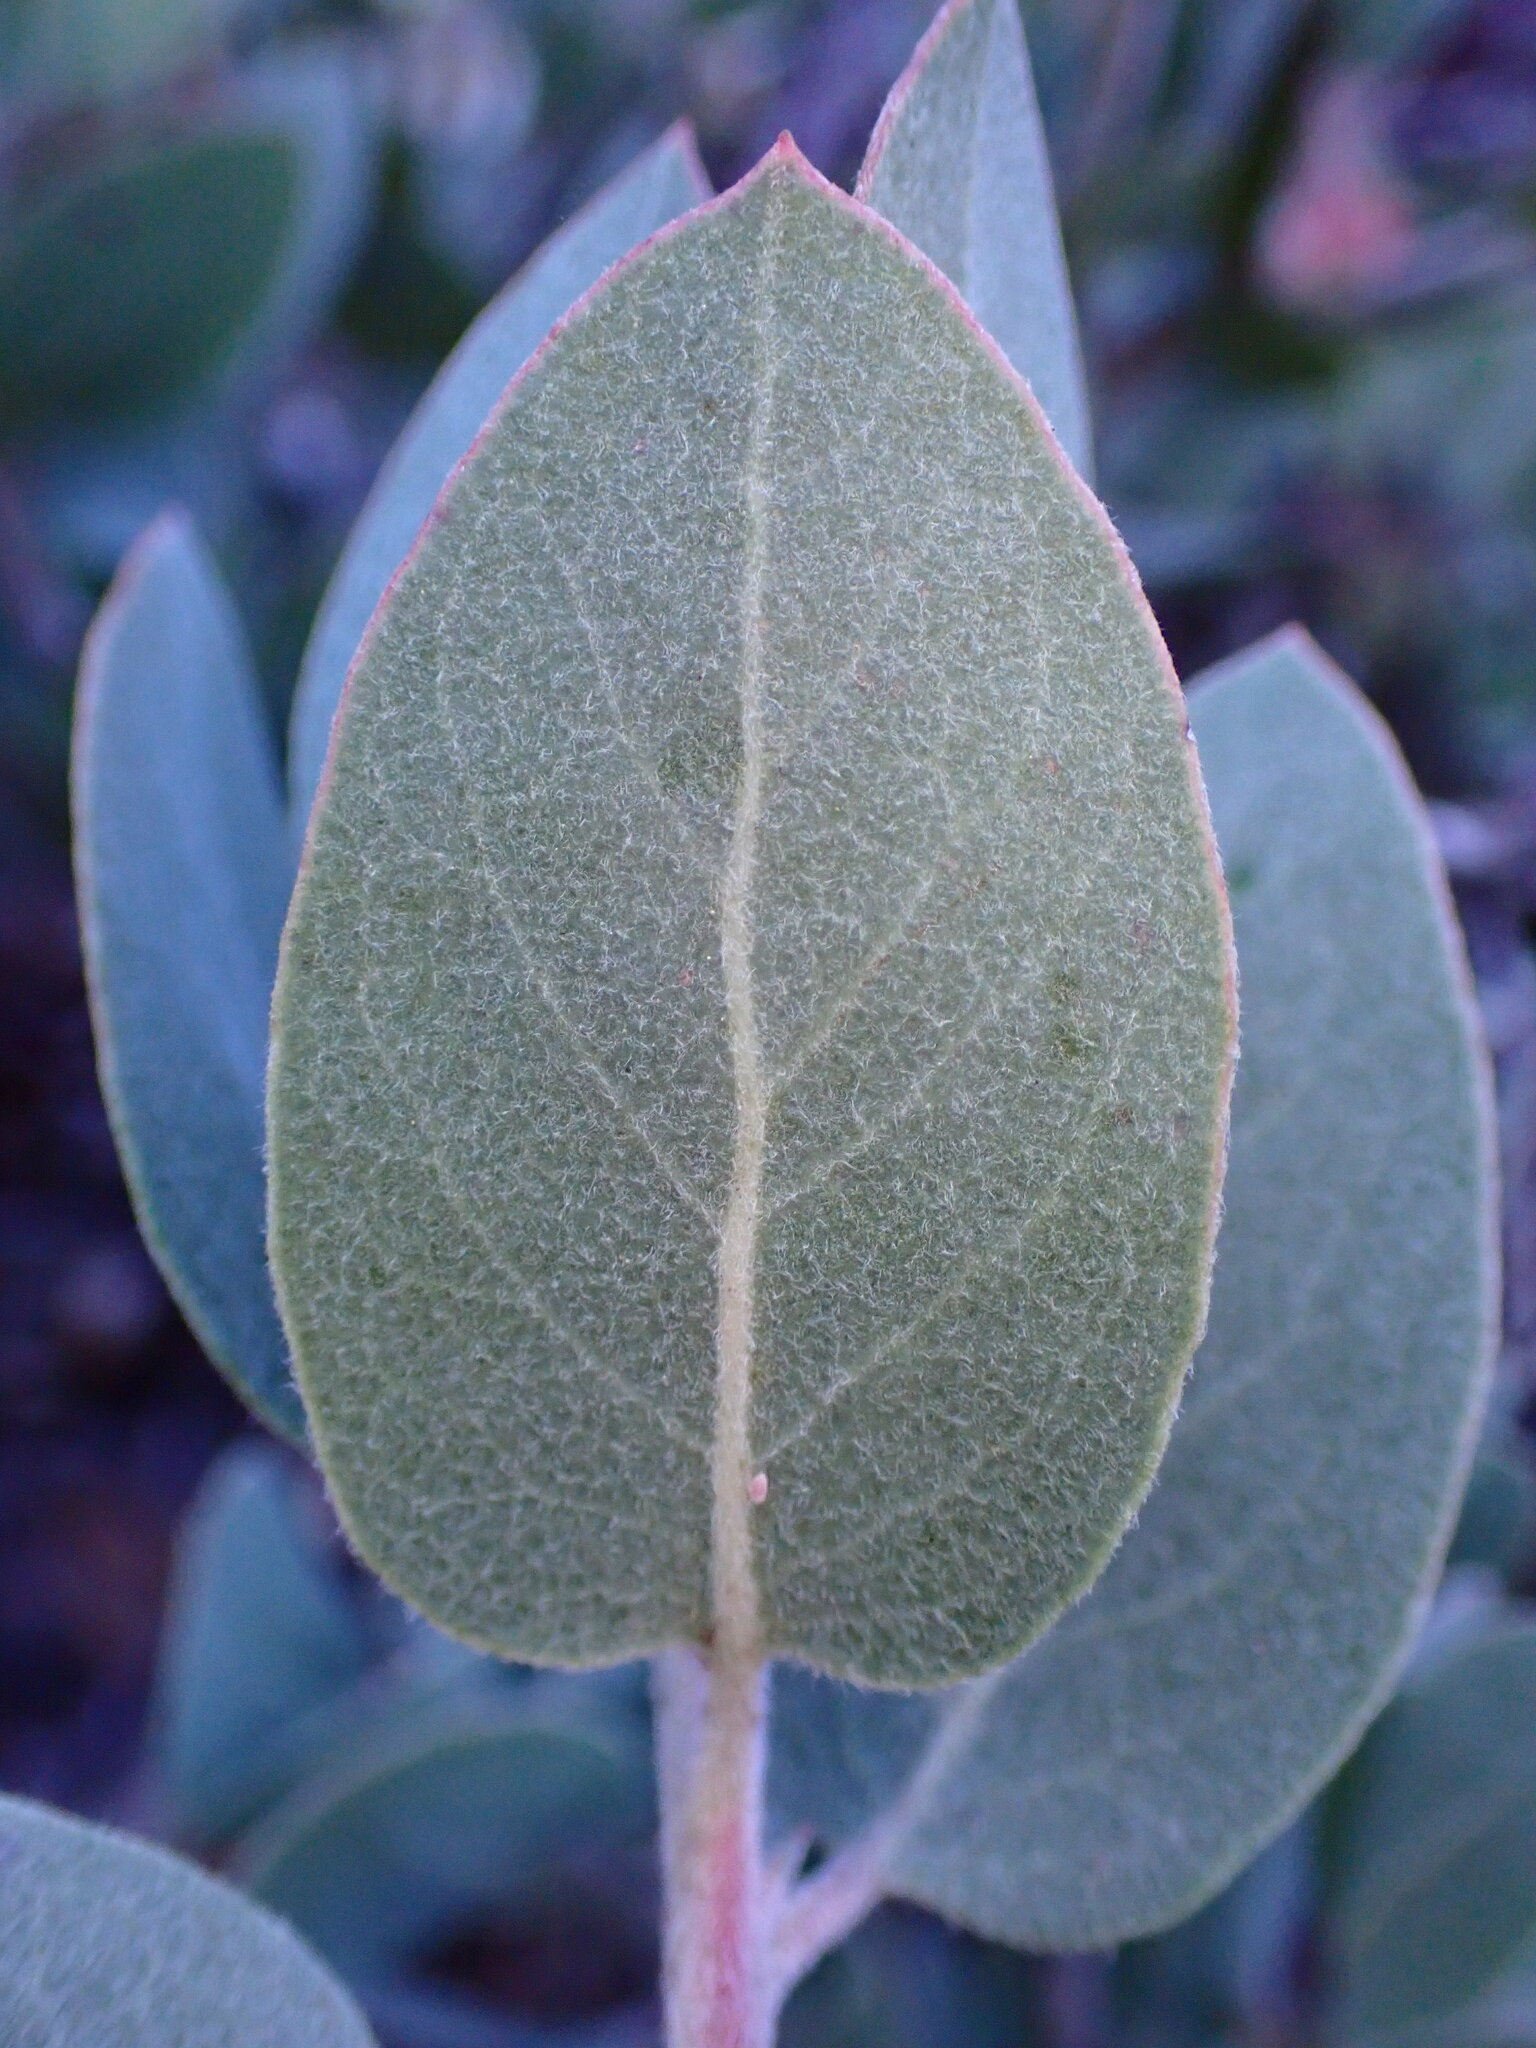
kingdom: Plantae
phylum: Tracheophyta
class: Magnoliopsida
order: Ericales
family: Ericaceae
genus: Arctostaphylos
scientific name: Arctostaphylos canescens
